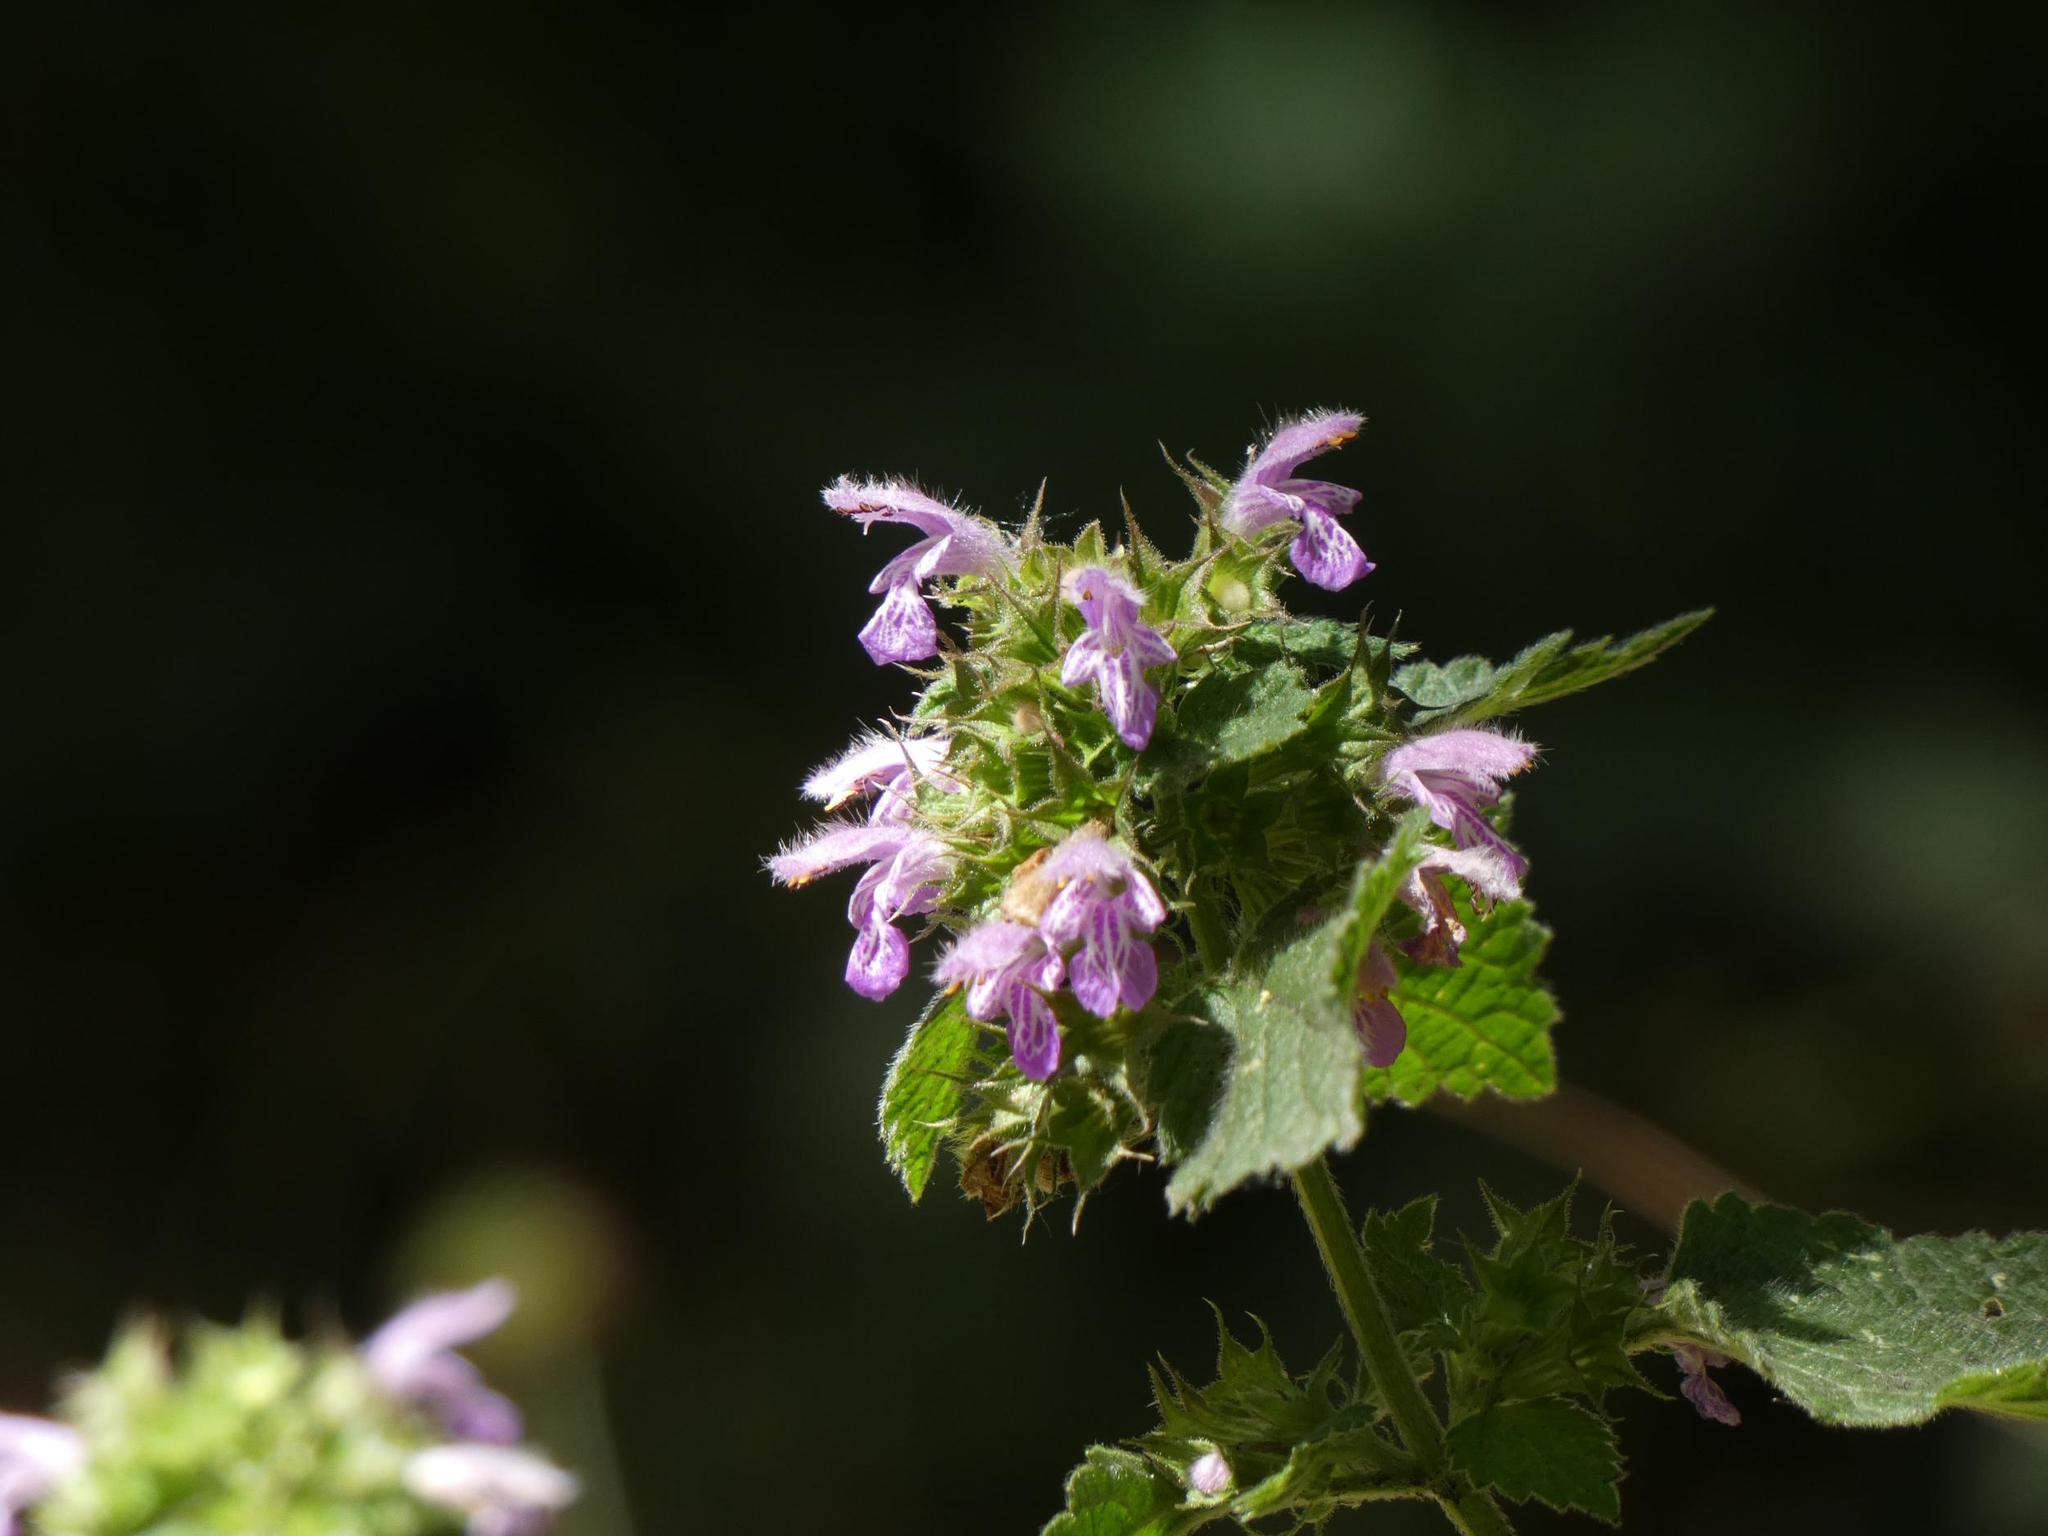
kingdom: Plantae
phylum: Tracheophyta
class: Magnoliopsida
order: Lamiales
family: Lamiaceae
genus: Ballota
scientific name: Ballota nigra
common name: Black horehound
